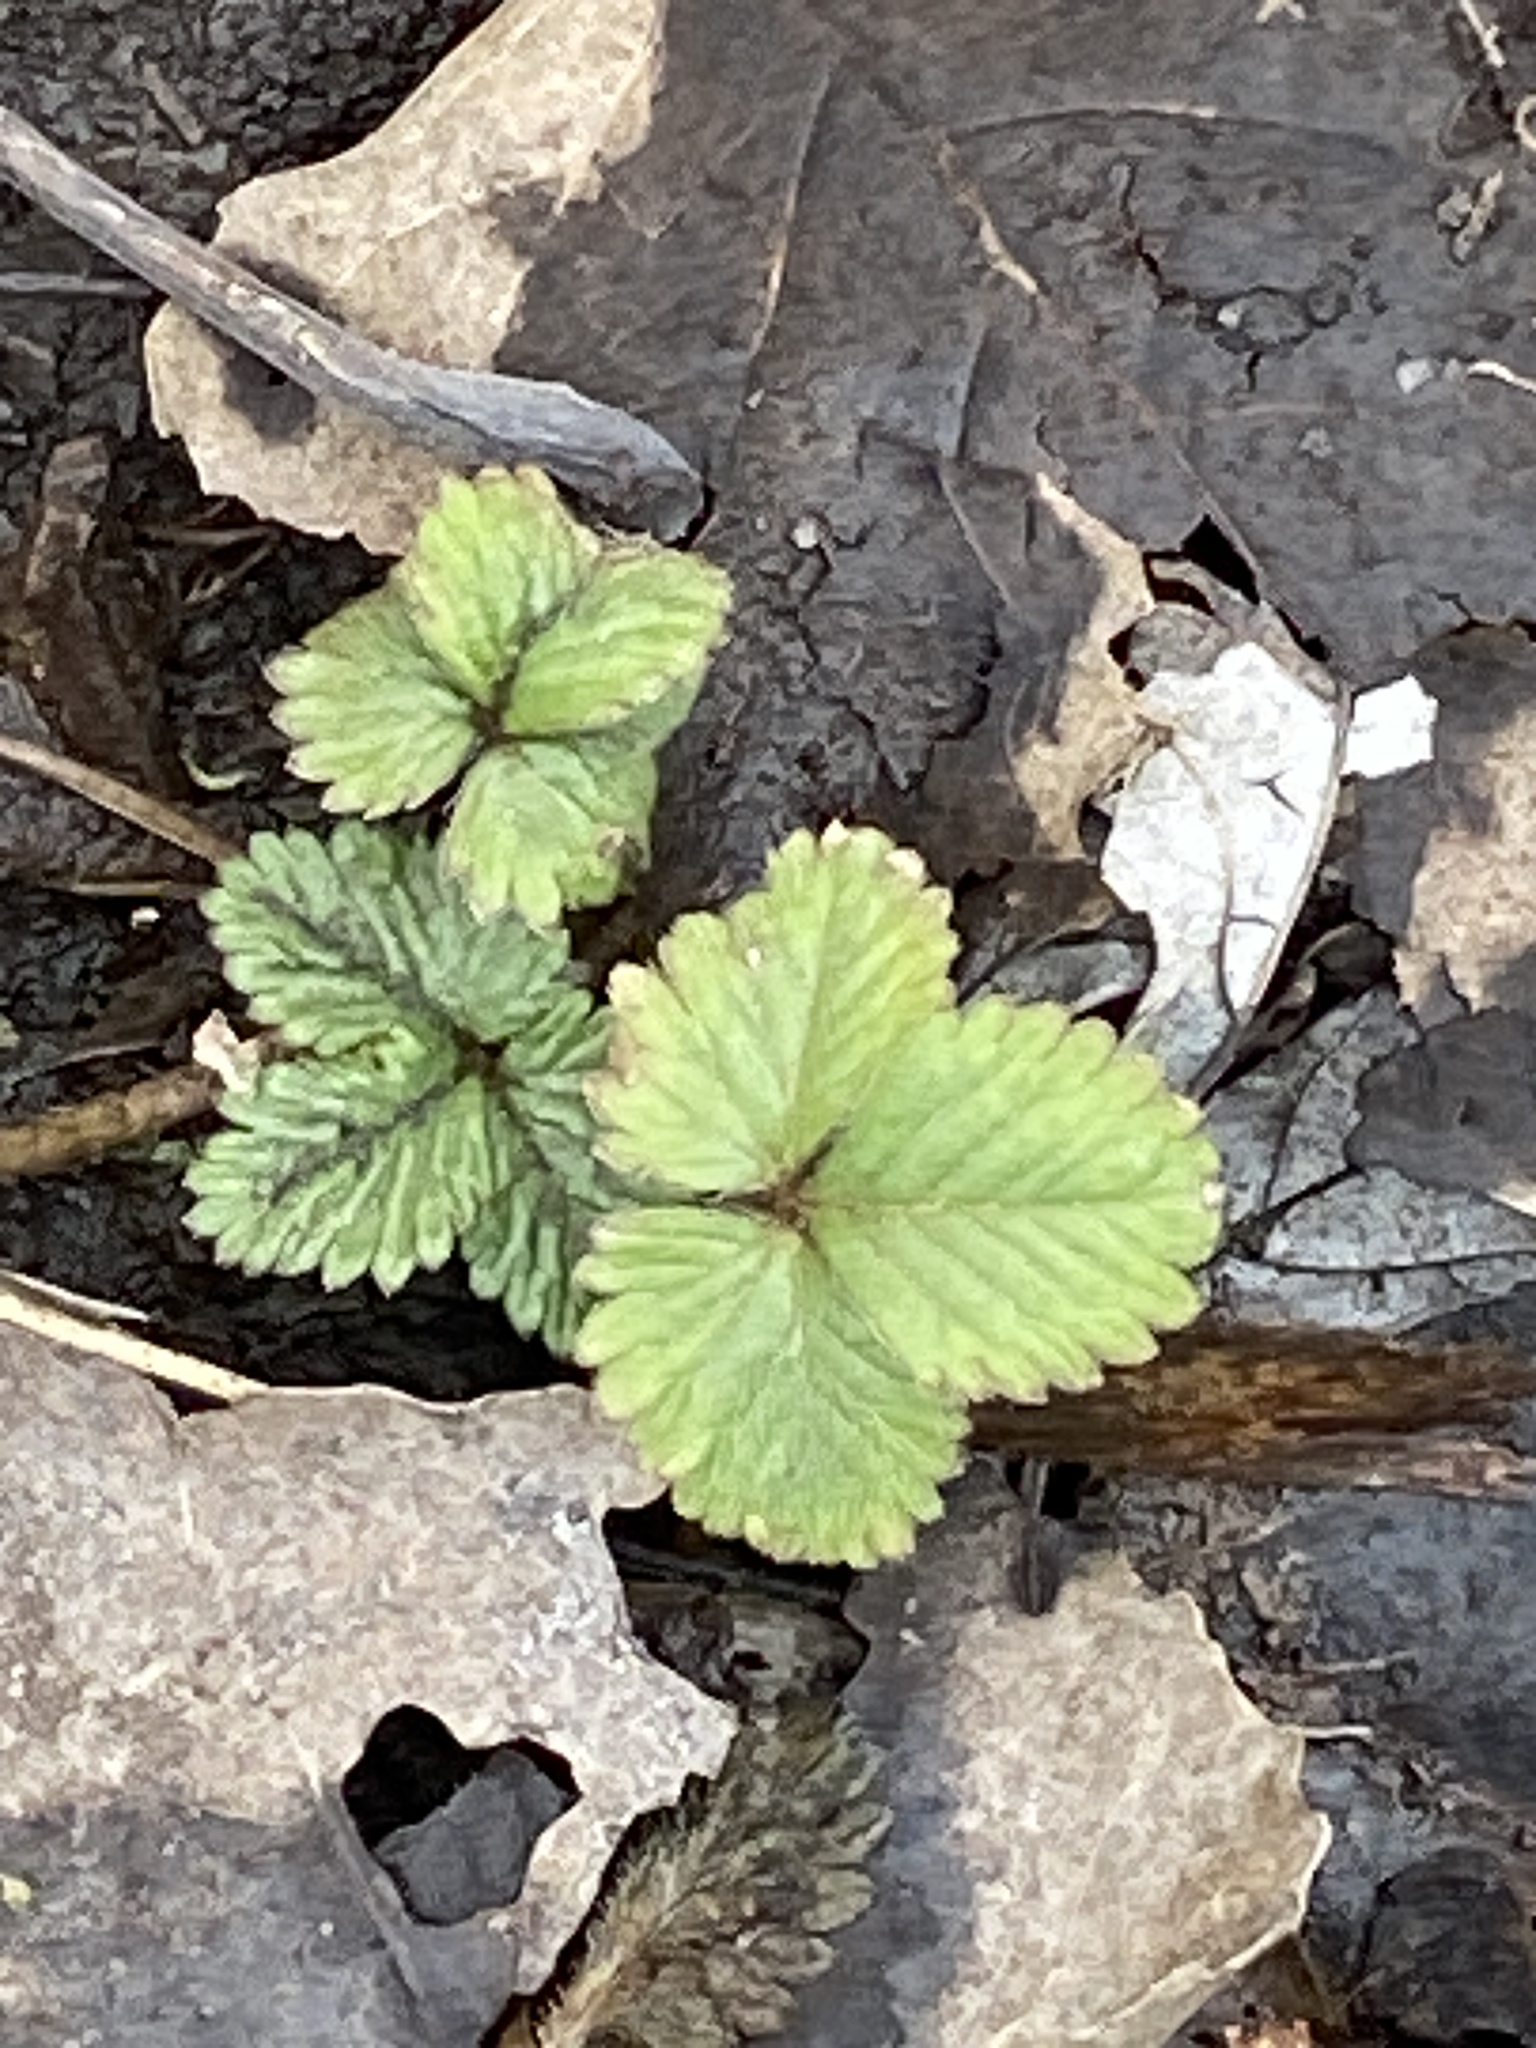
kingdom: Plantae
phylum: Tracheophyta
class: Magnoliopsida
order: Rosales
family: Rosaceae
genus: Potentilla
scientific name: Potentilla indica
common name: Yellow-flowered strawberry
